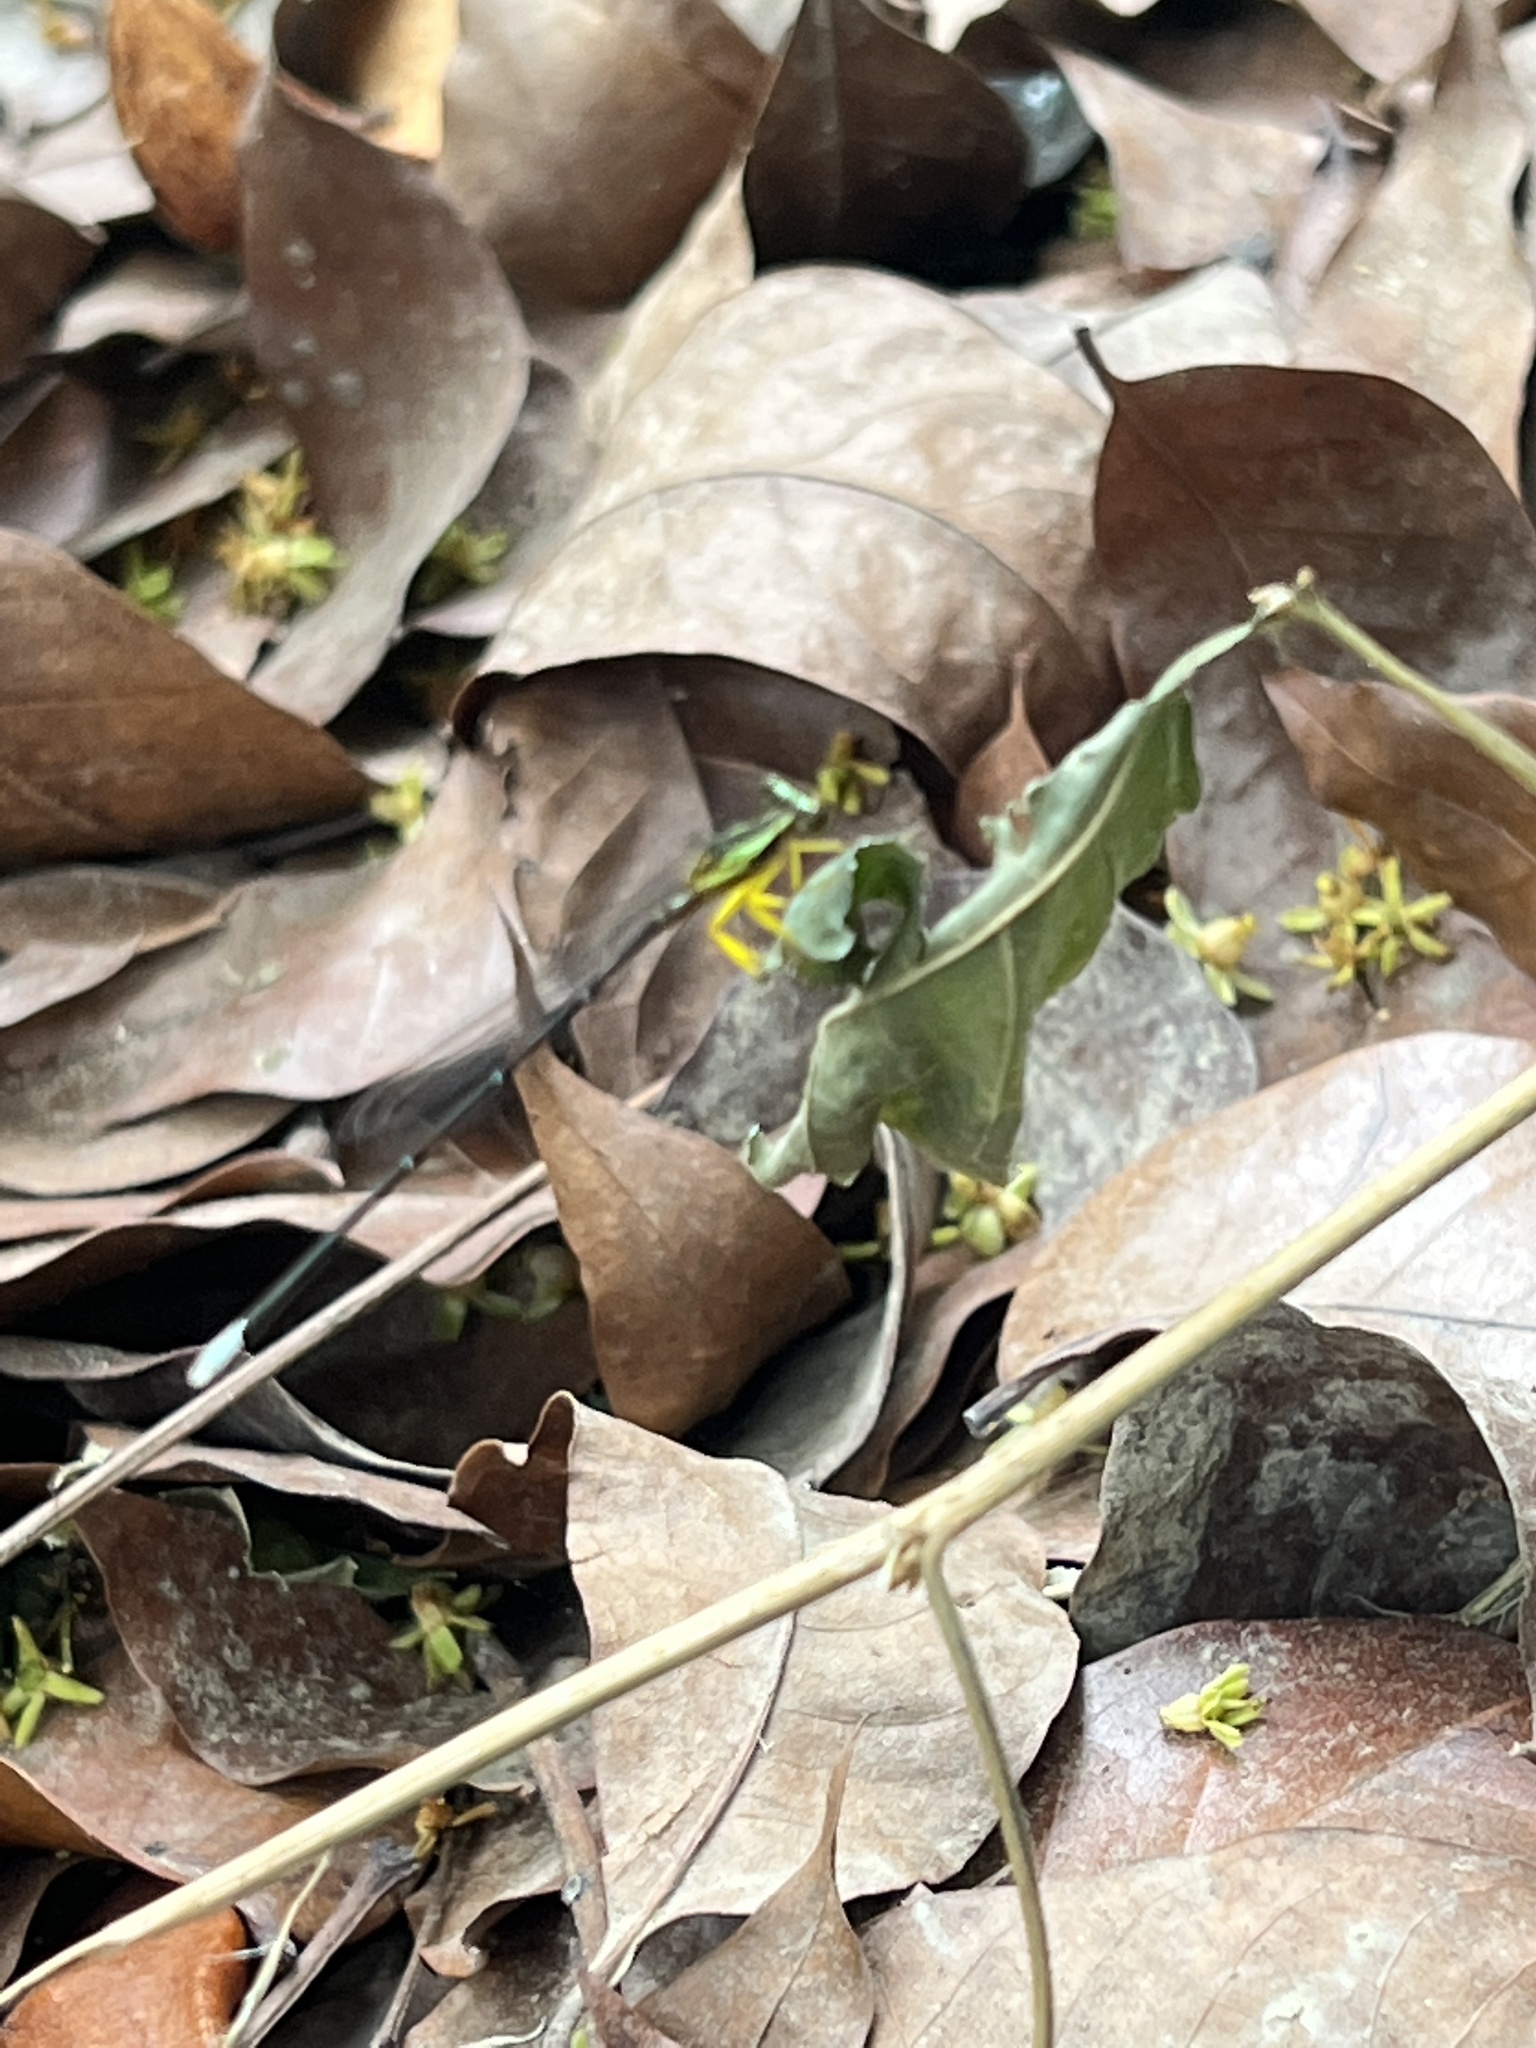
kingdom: Animalia
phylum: Arthropoda
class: Insecta
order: Odonata
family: Platycnemididae
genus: Copera
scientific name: Copera marginipes
